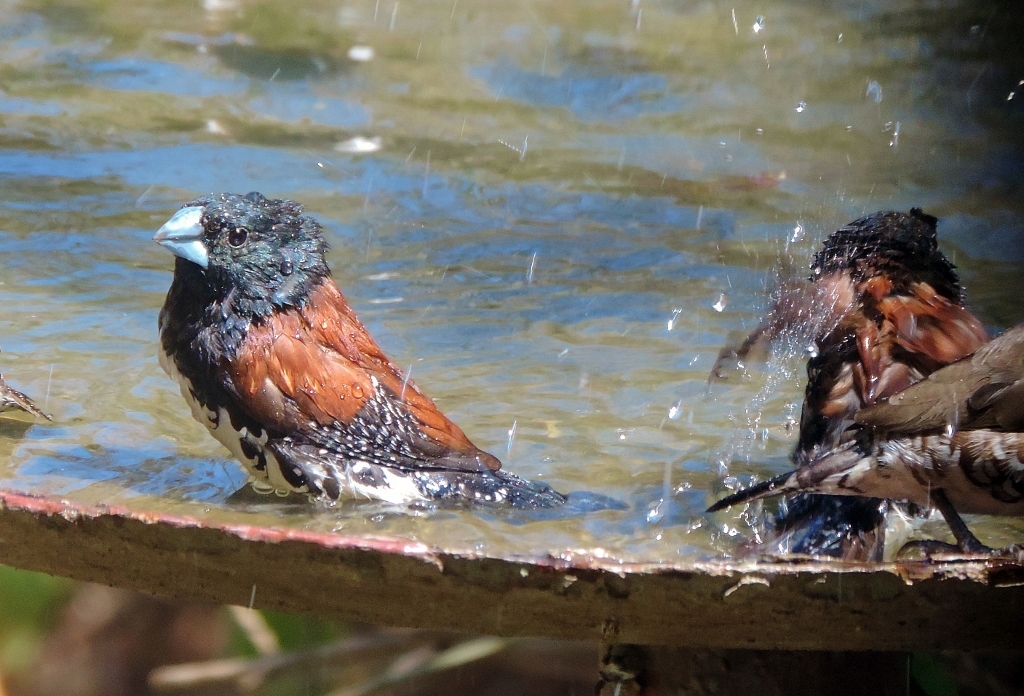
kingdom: Animalia
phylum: Chordata
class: Aves
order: Passeriformes
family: Estrildidae
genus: Lonchura
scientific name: Lonchura nigriceps
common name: Red-backed mannikin
